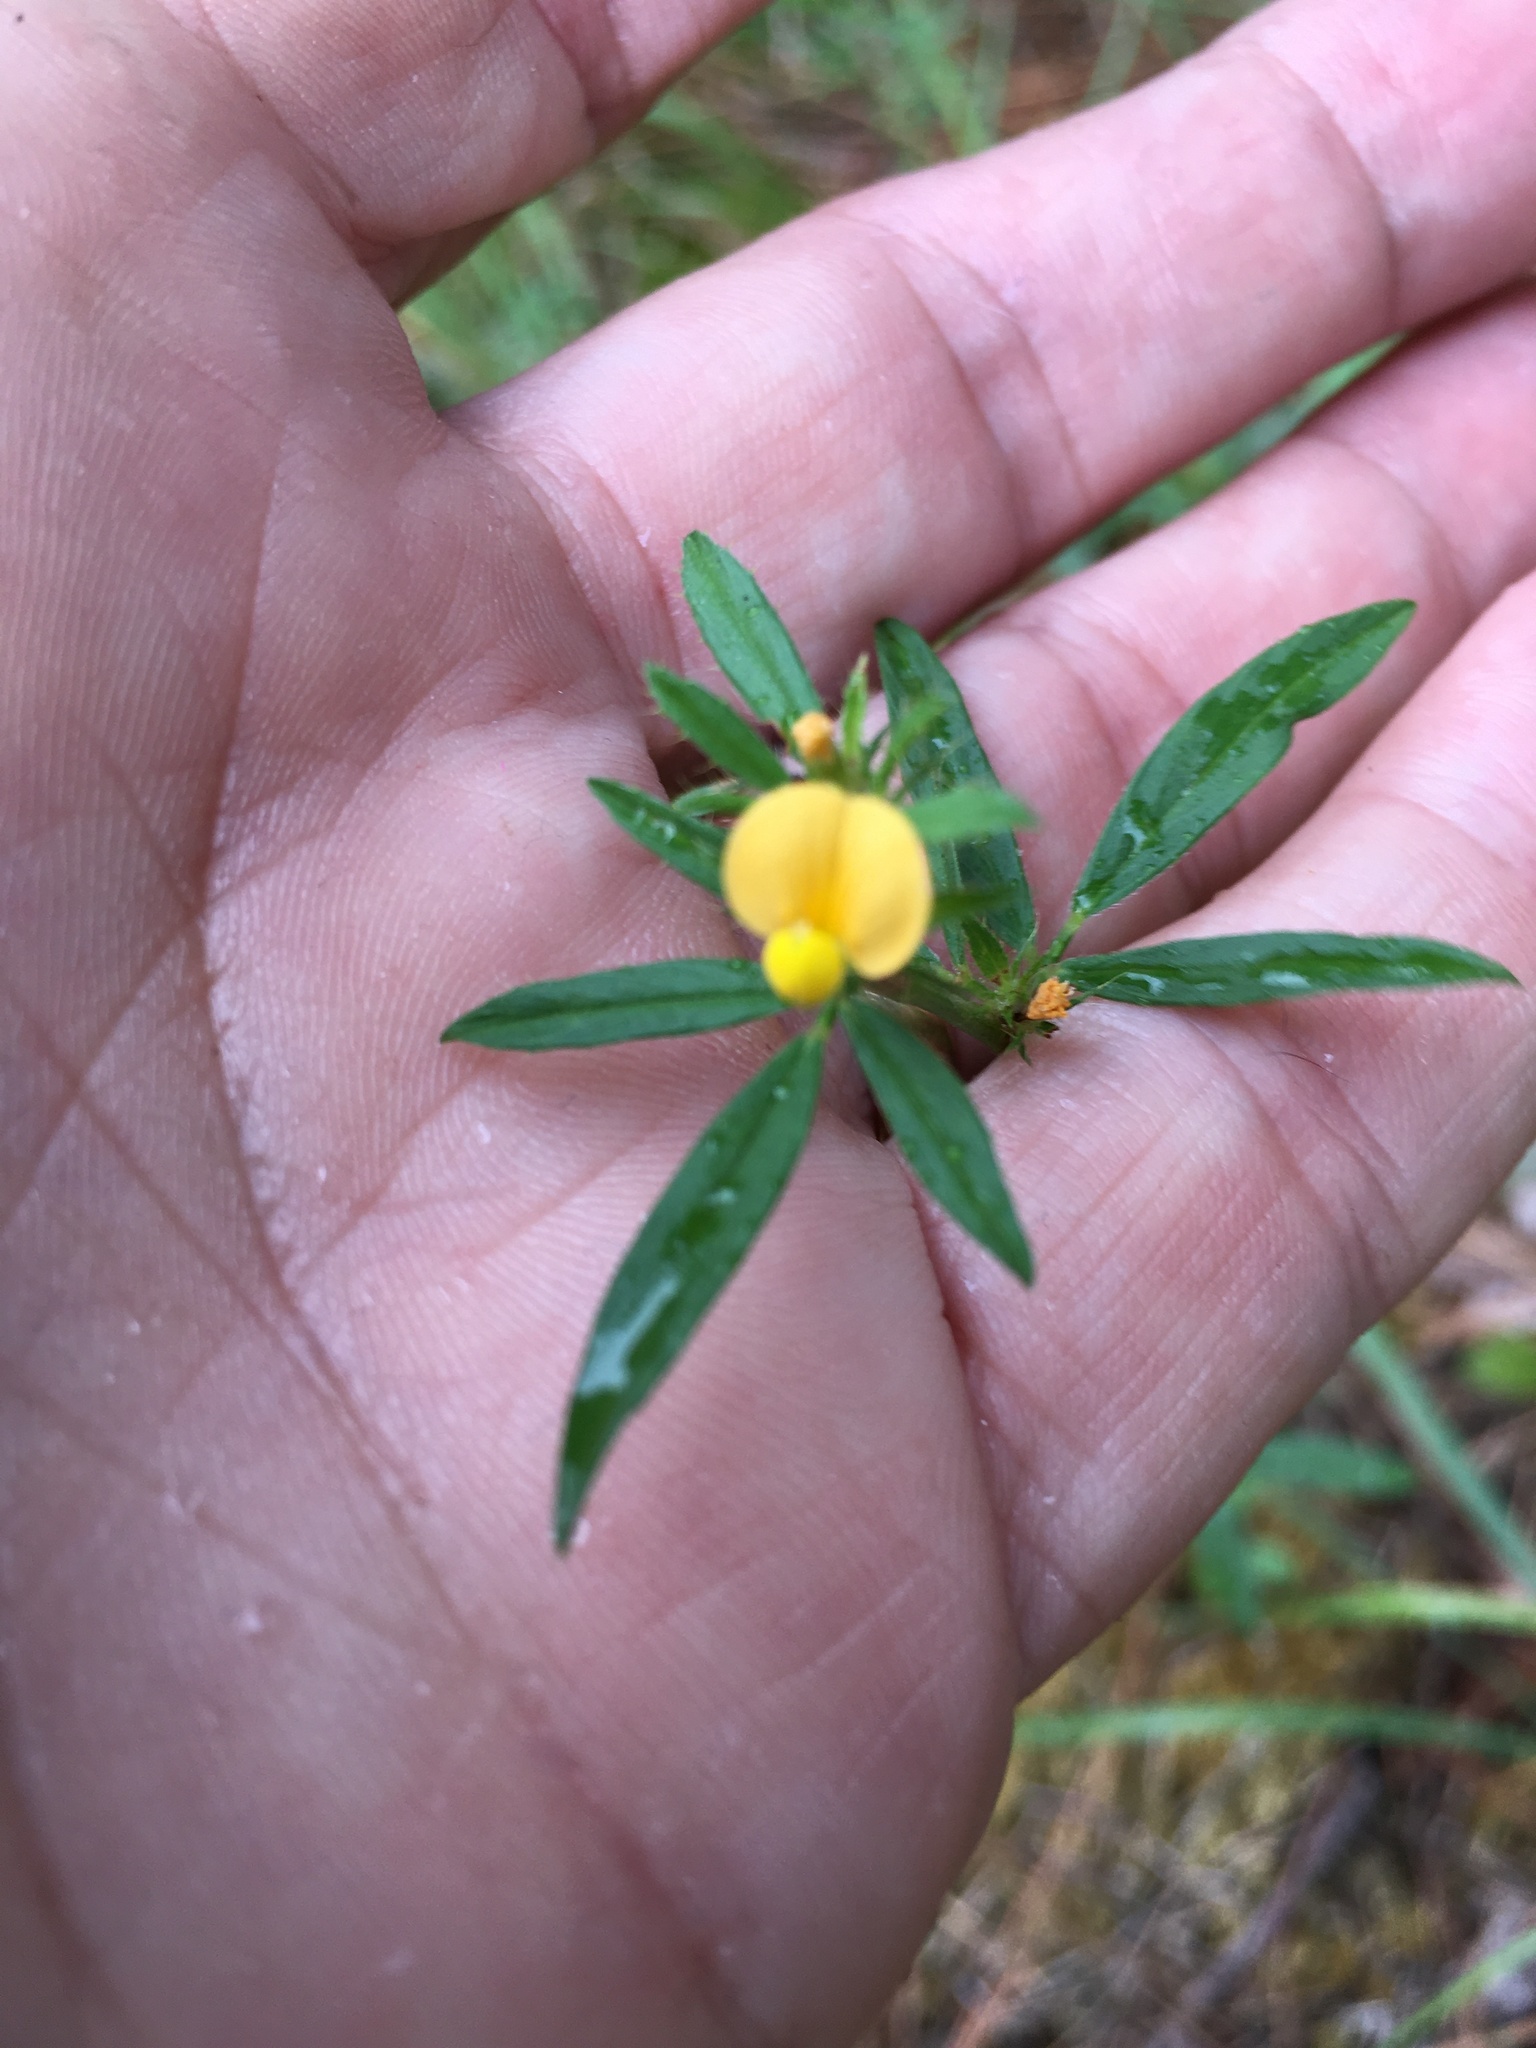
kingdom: Plantae
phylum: Tracheophyta
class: Magnoliopsida
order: Fabales
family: Fabaceae
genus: Stylosanthes
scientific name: Stylosanthes biflora
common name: Two-flower pencil-flower
